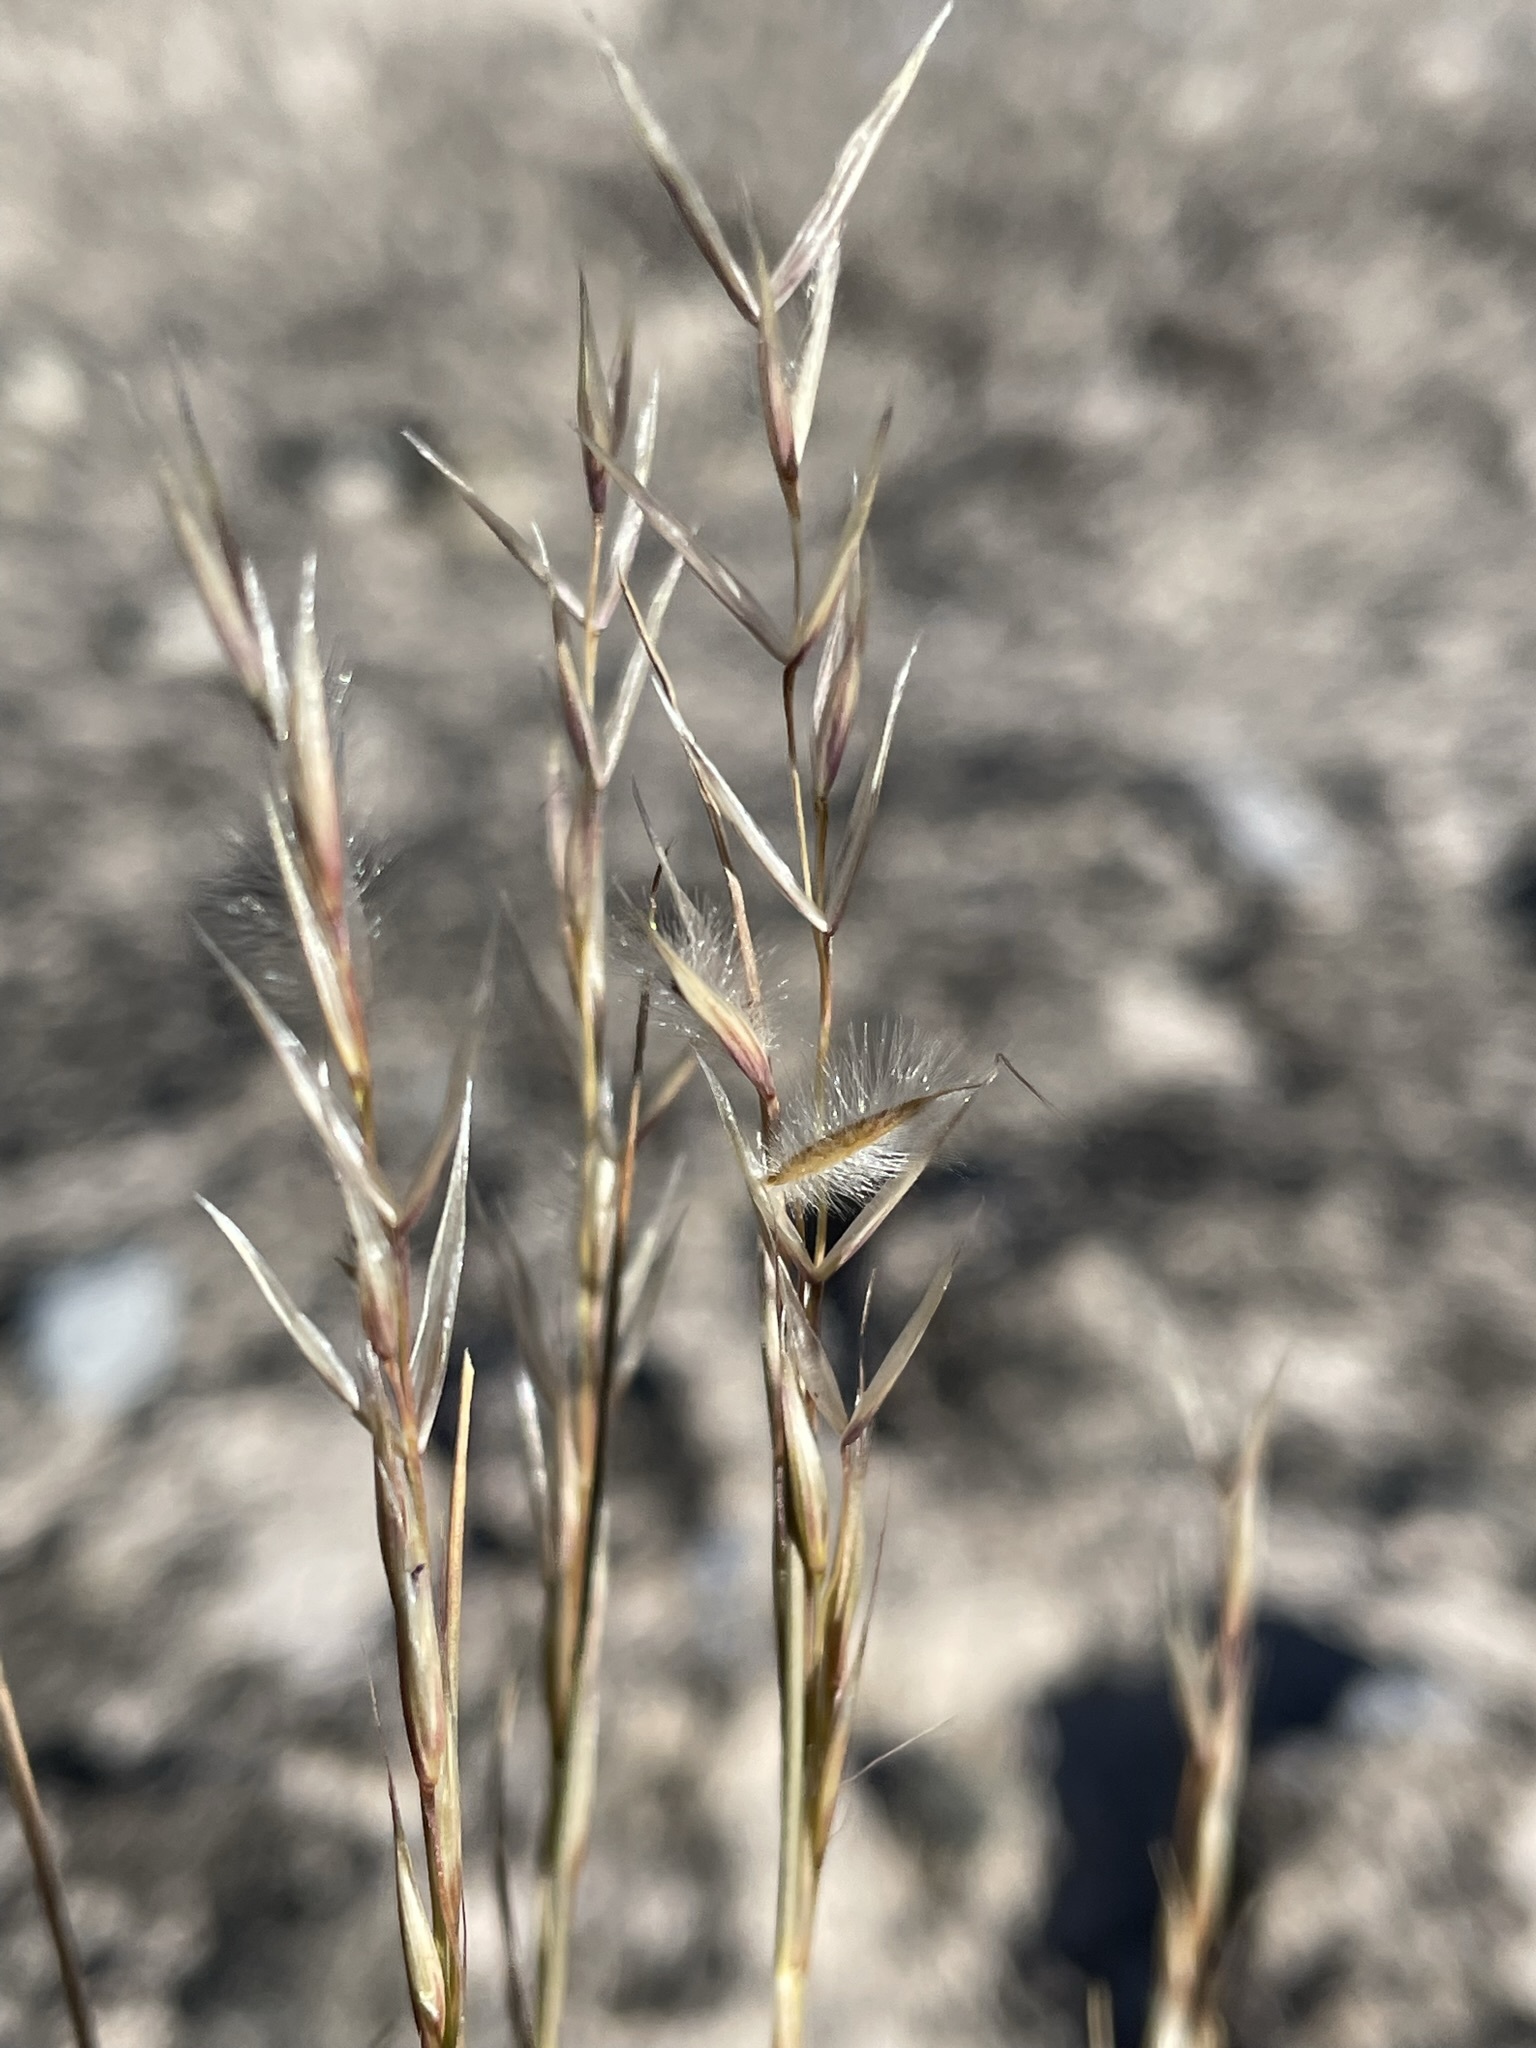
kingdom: Plantae
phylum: Tracheophyta
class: Liliopsida
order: Poales
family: Poaceae
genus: Eriocoma
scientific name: Eriocoma webberi
